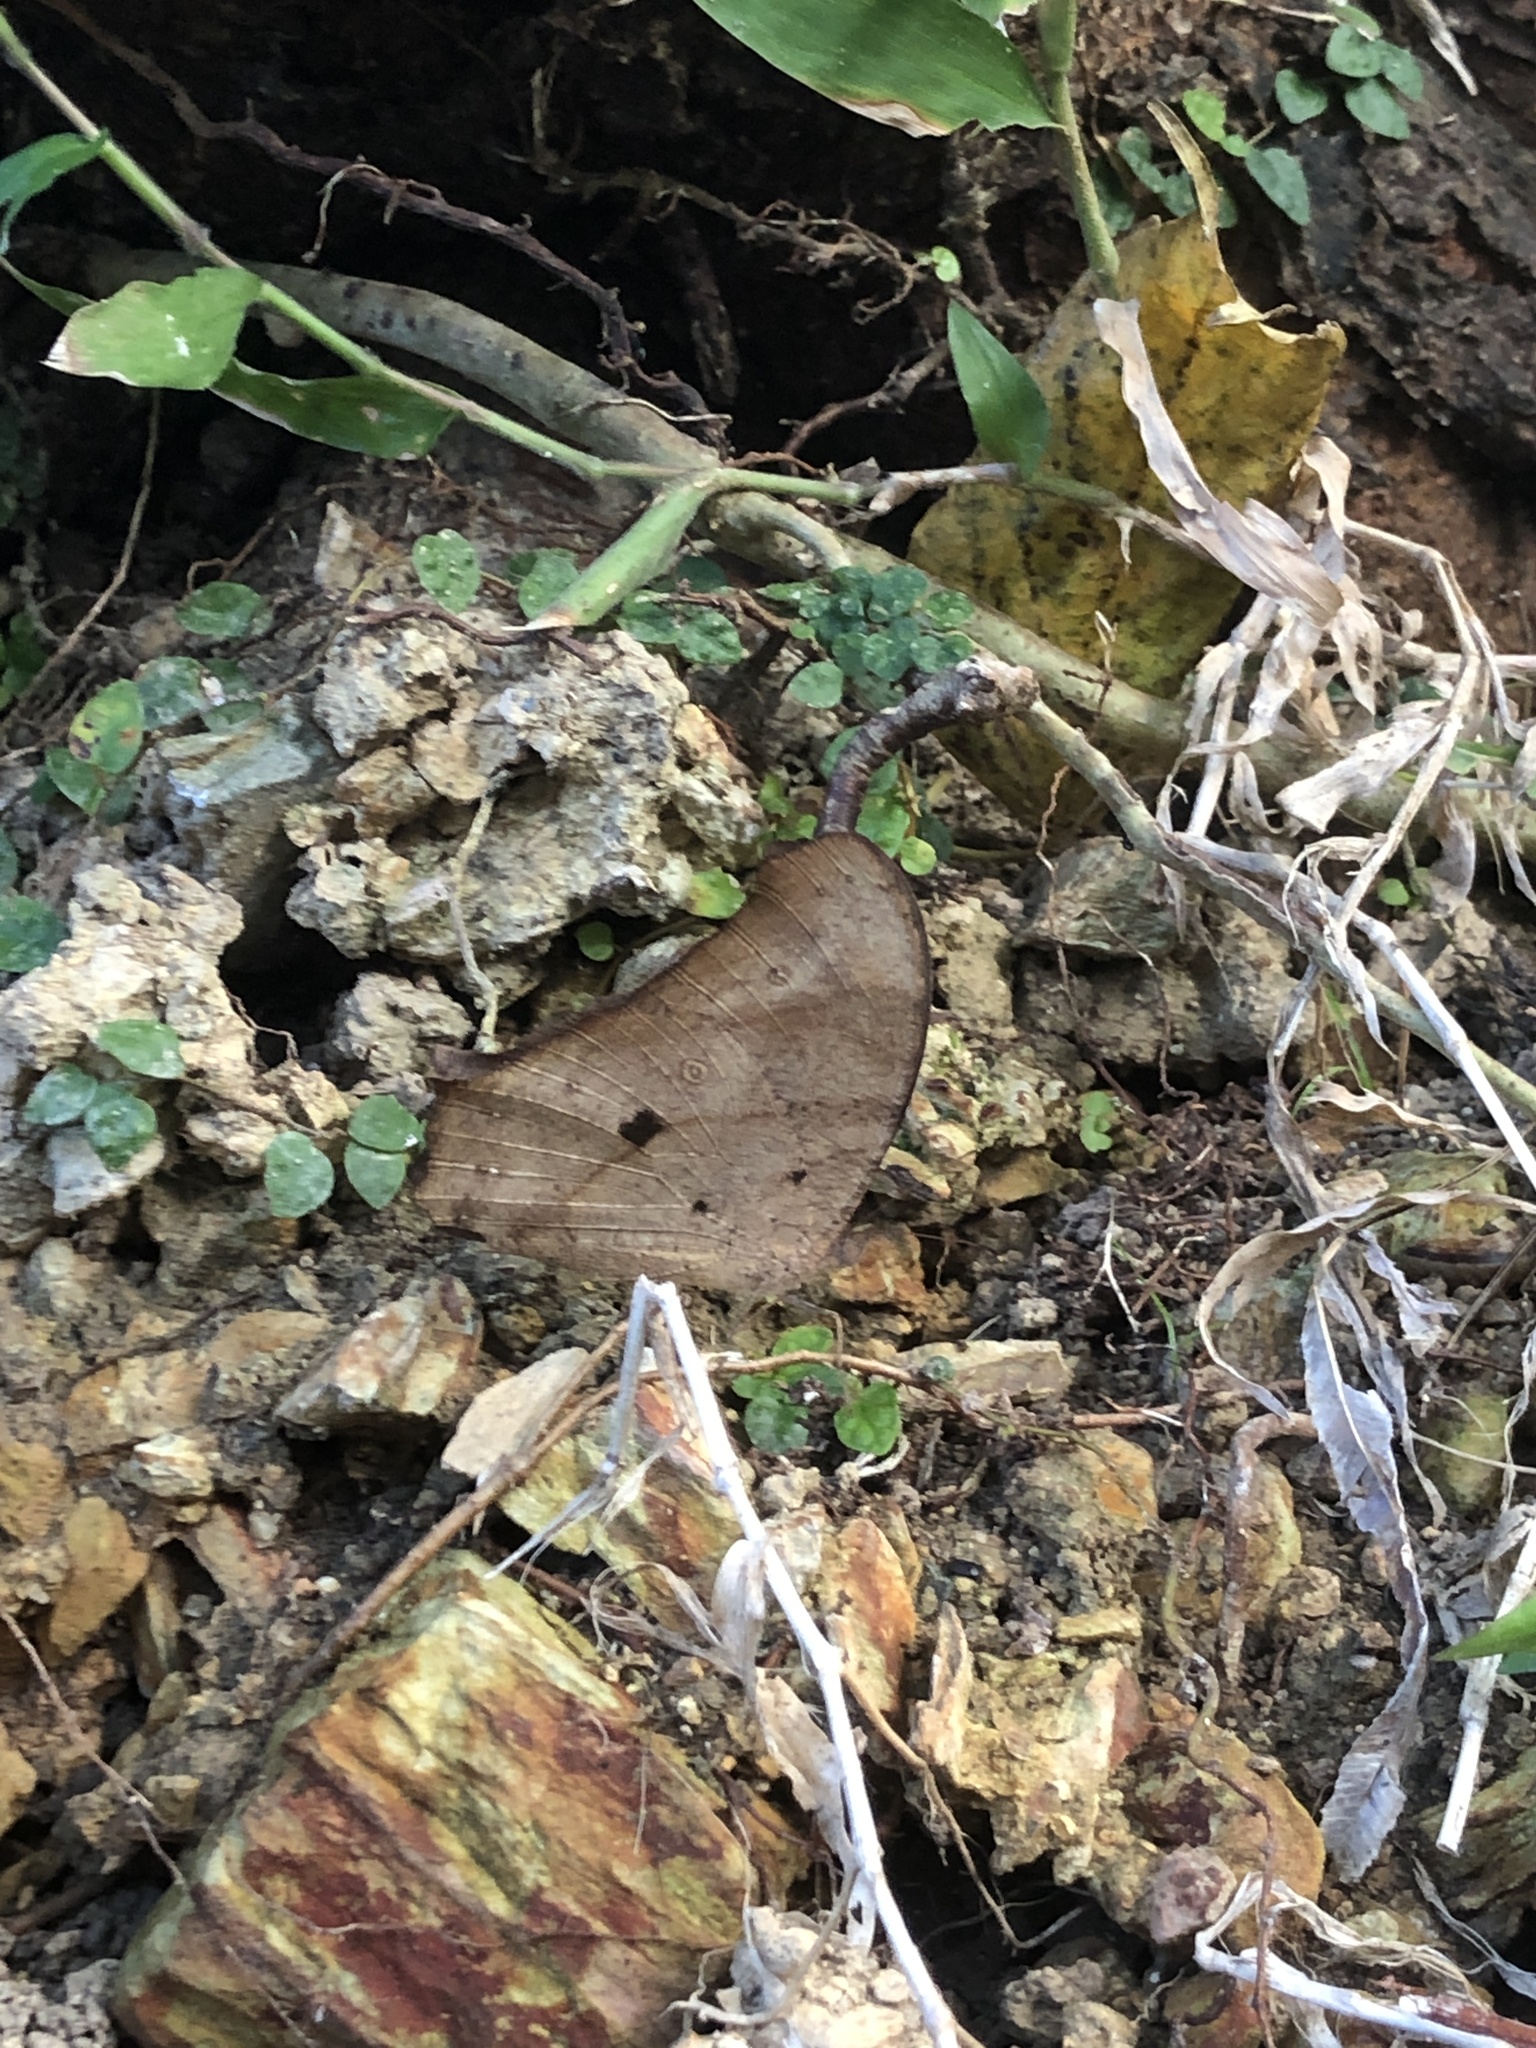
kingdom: Animalia
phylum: Arthropoda
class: Insecta
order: Lepidoptera
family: Nymphalidae
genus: Melanitis
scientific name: Melanitis leda
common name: Twilight brown
